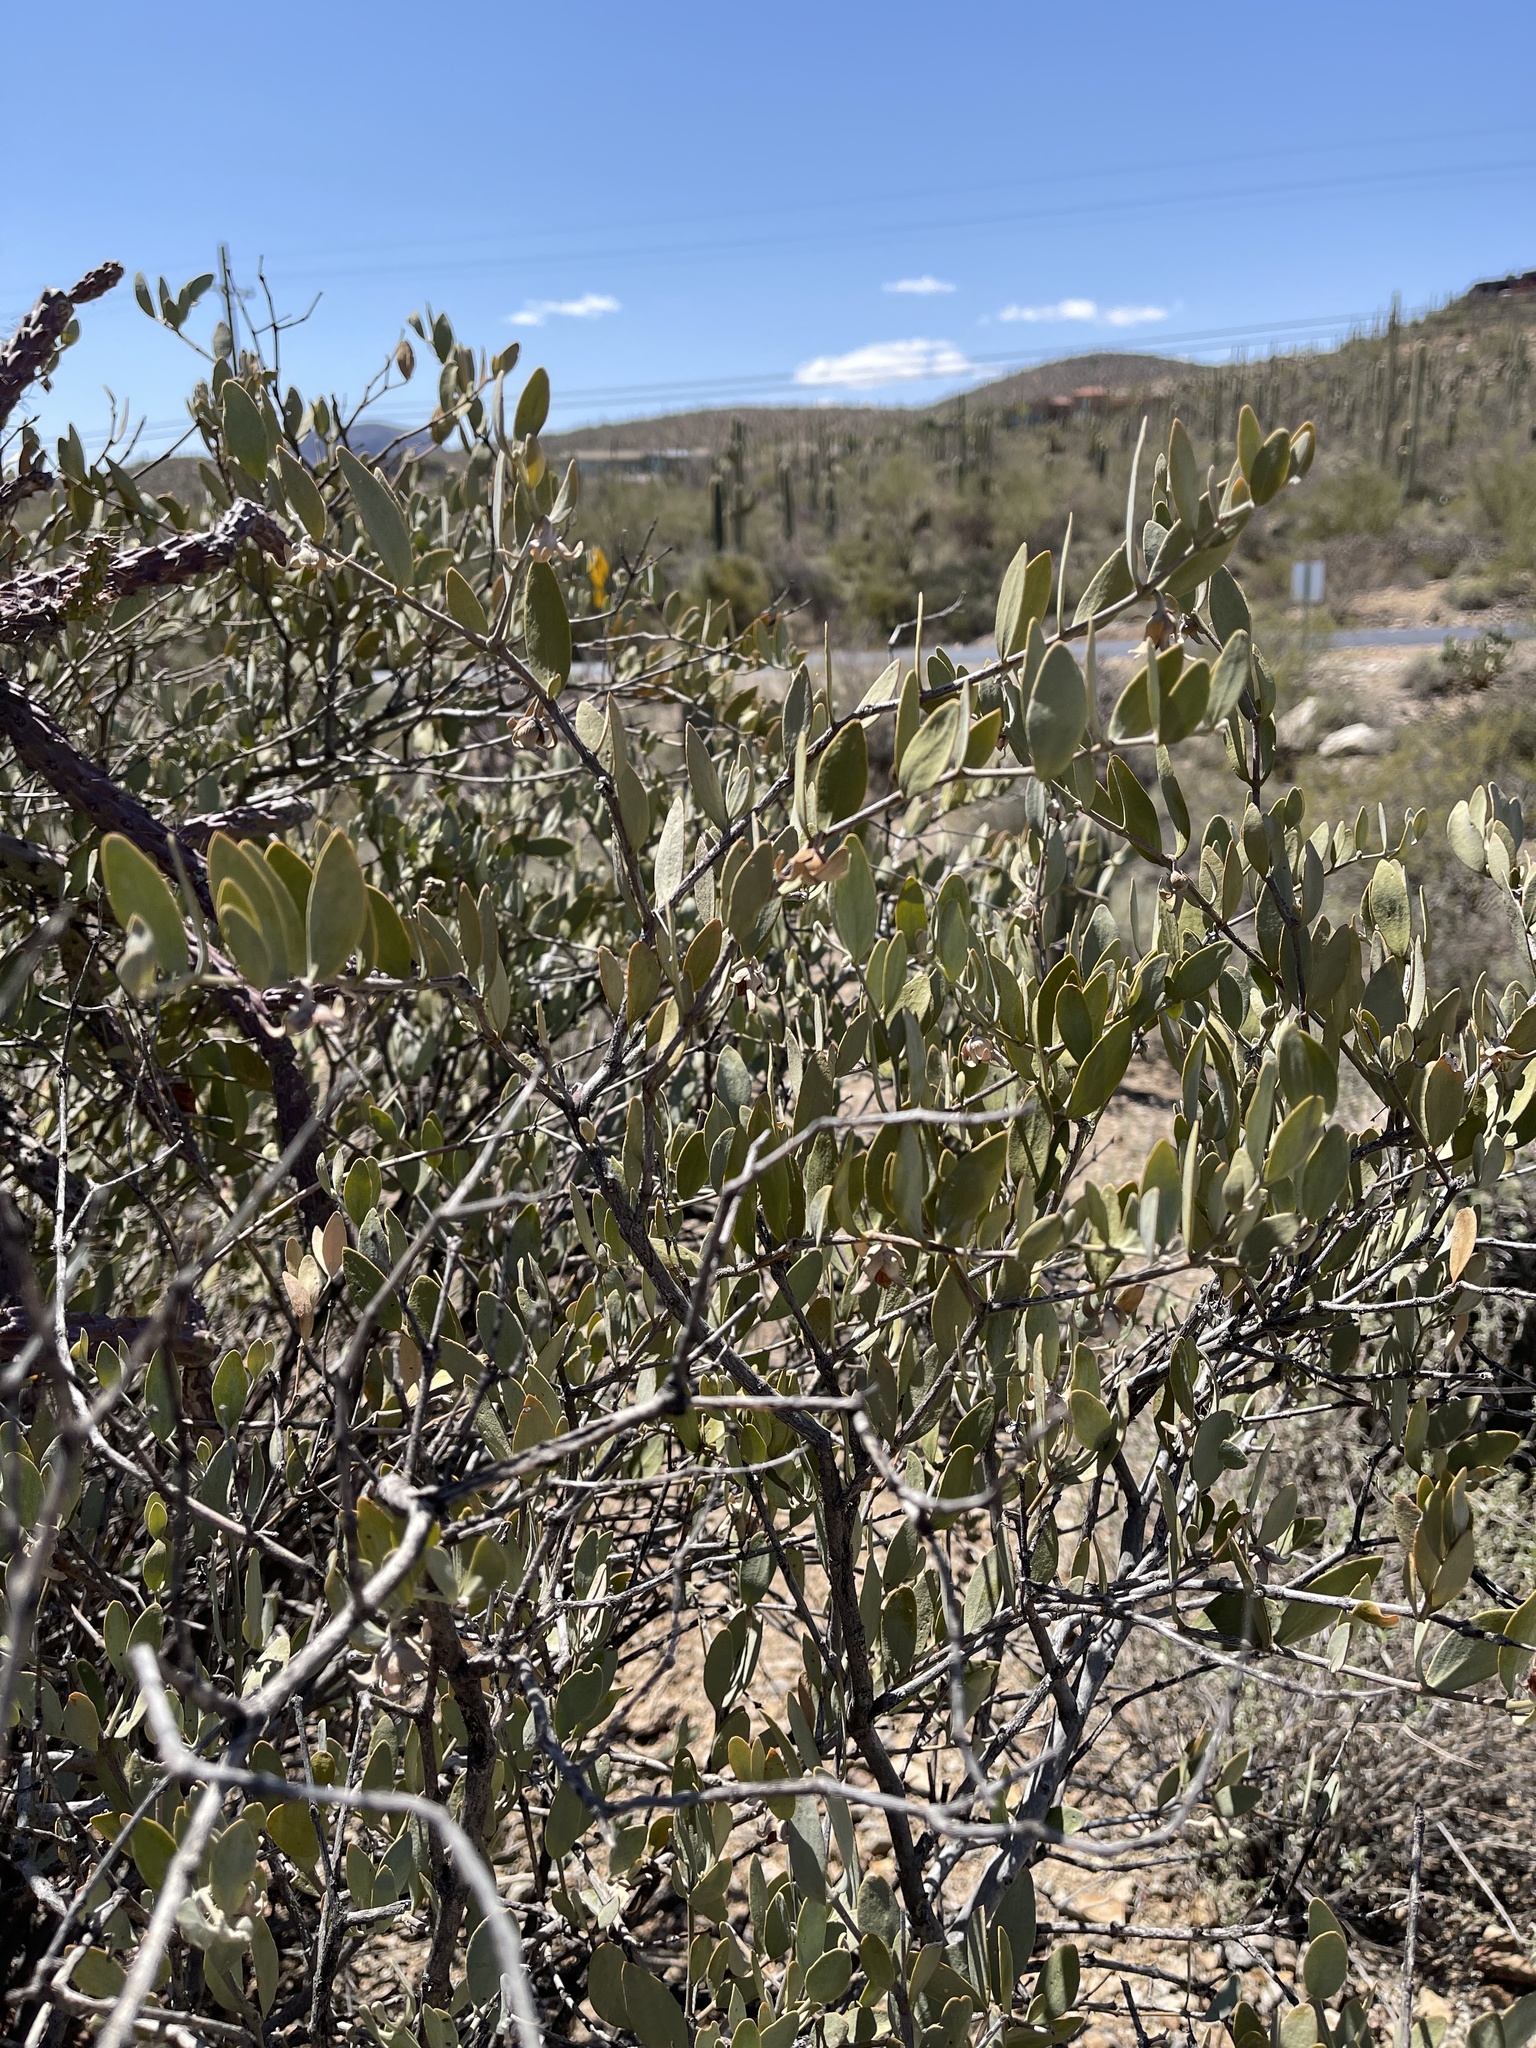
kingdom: Plantae
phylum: Tracheophyta
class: Magnoliopsida
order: Caryophyllales
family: Simmondsiaceae
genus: Simmondsia
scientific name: Simmondsia chinensis
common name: Jojoba
